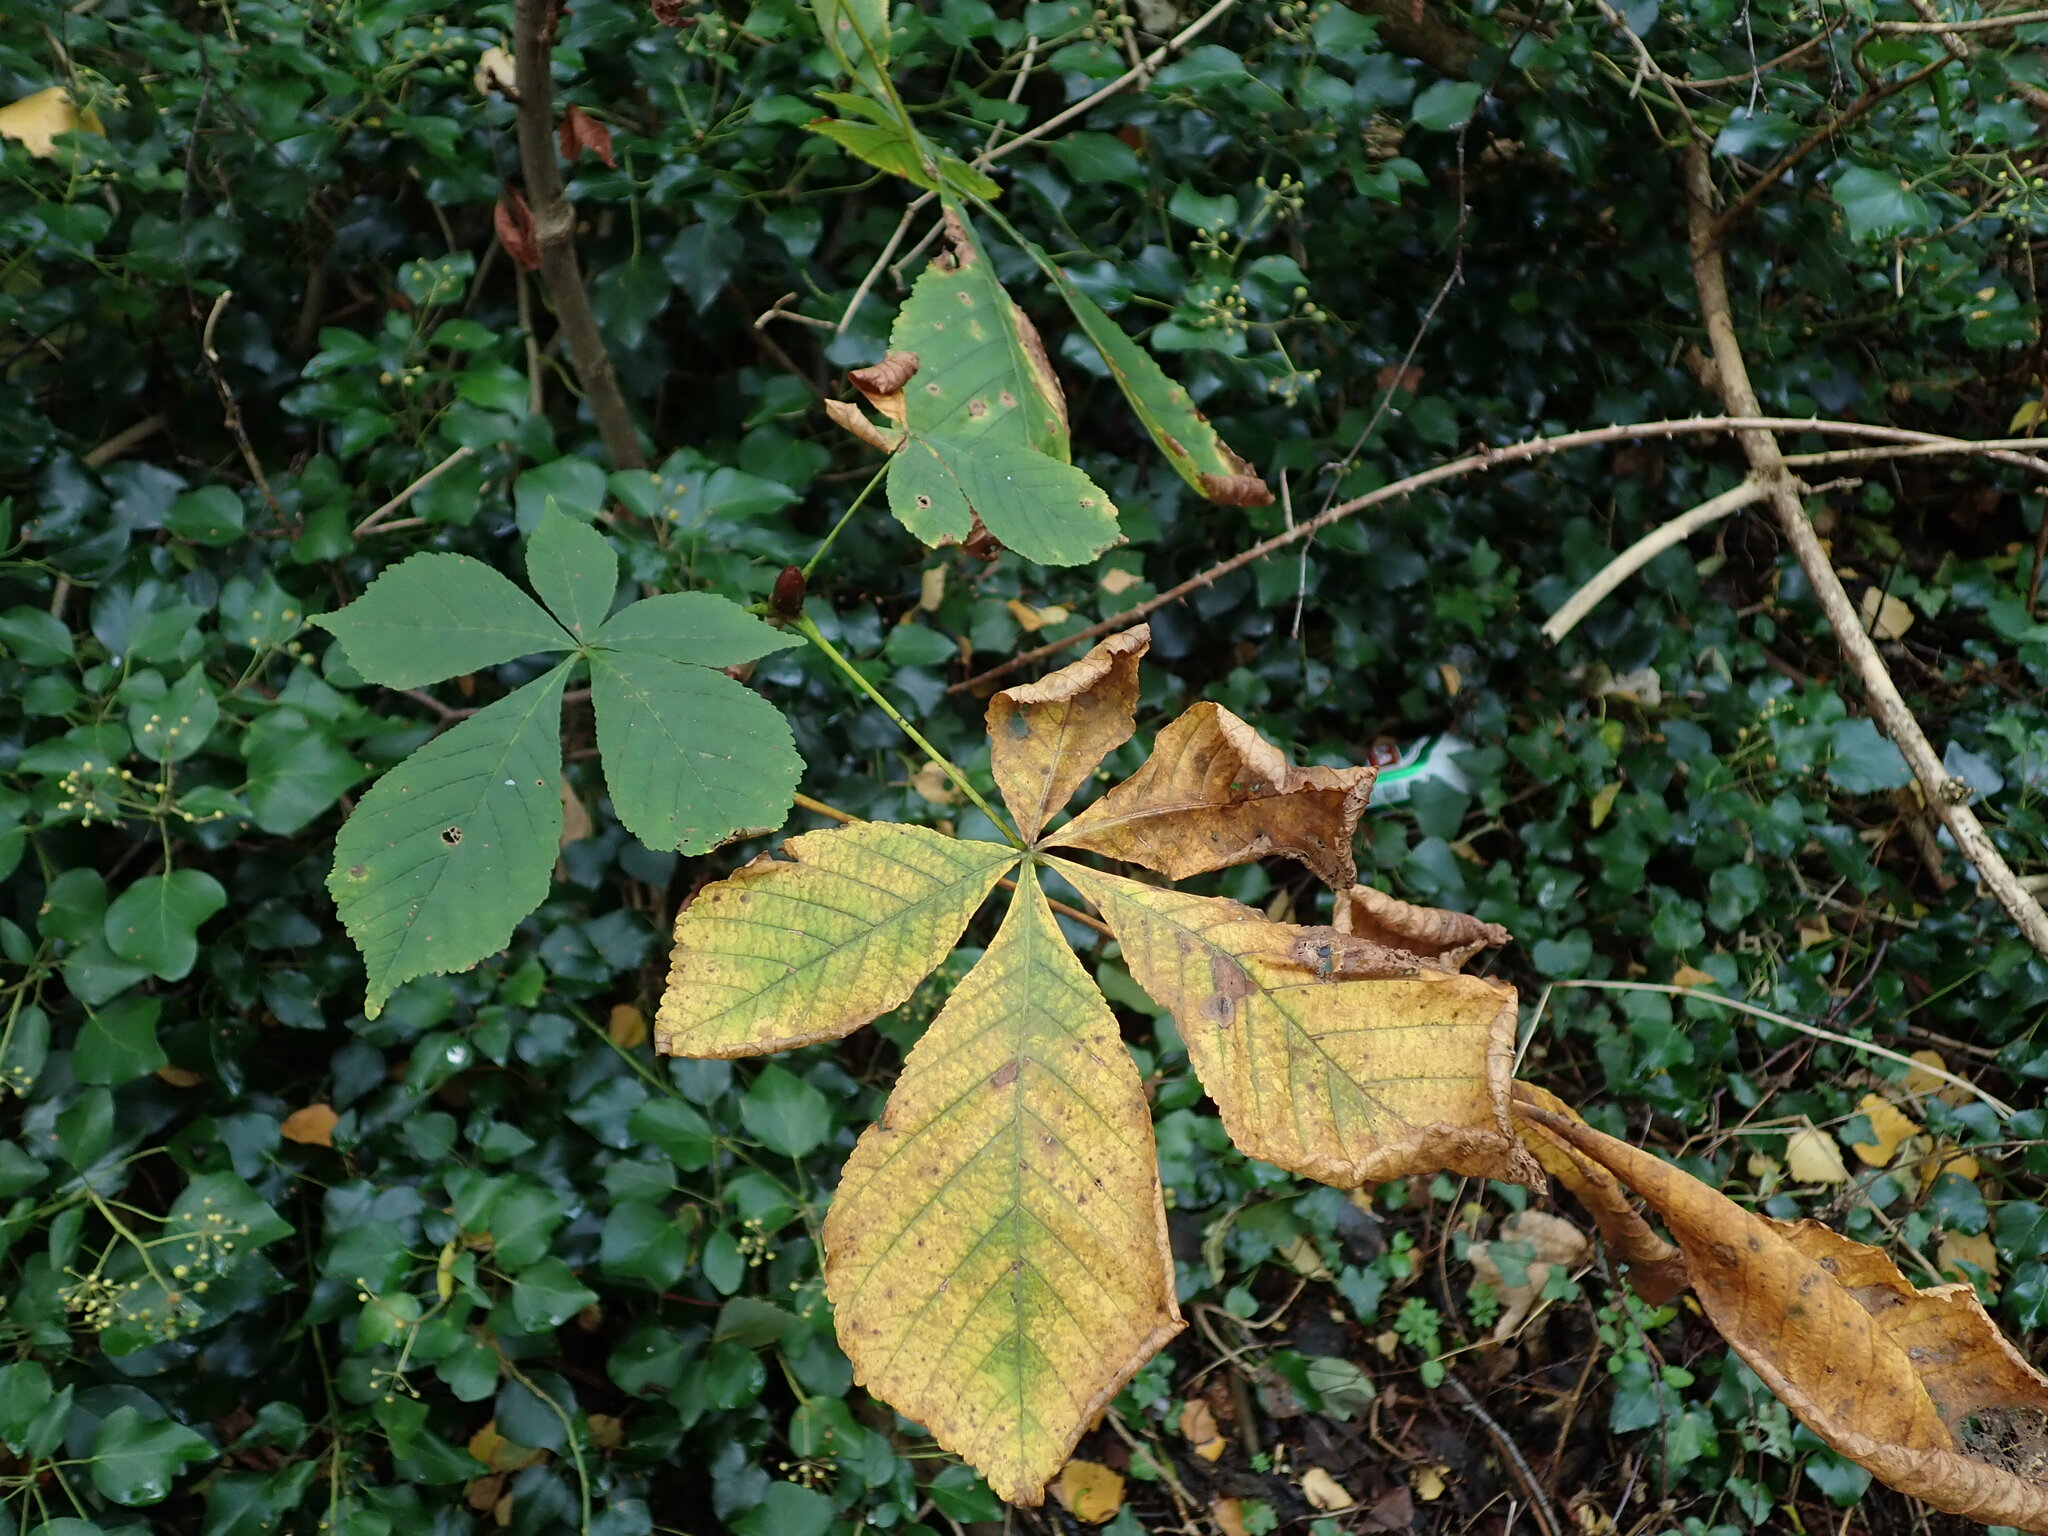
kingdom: Plantae
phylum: Tracheophyta
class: Magnoliopsida
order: Sapindales
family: Sapindaceae
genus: Aesculus
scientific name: Aesculus hippocastanum
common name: Horse-chestnut
